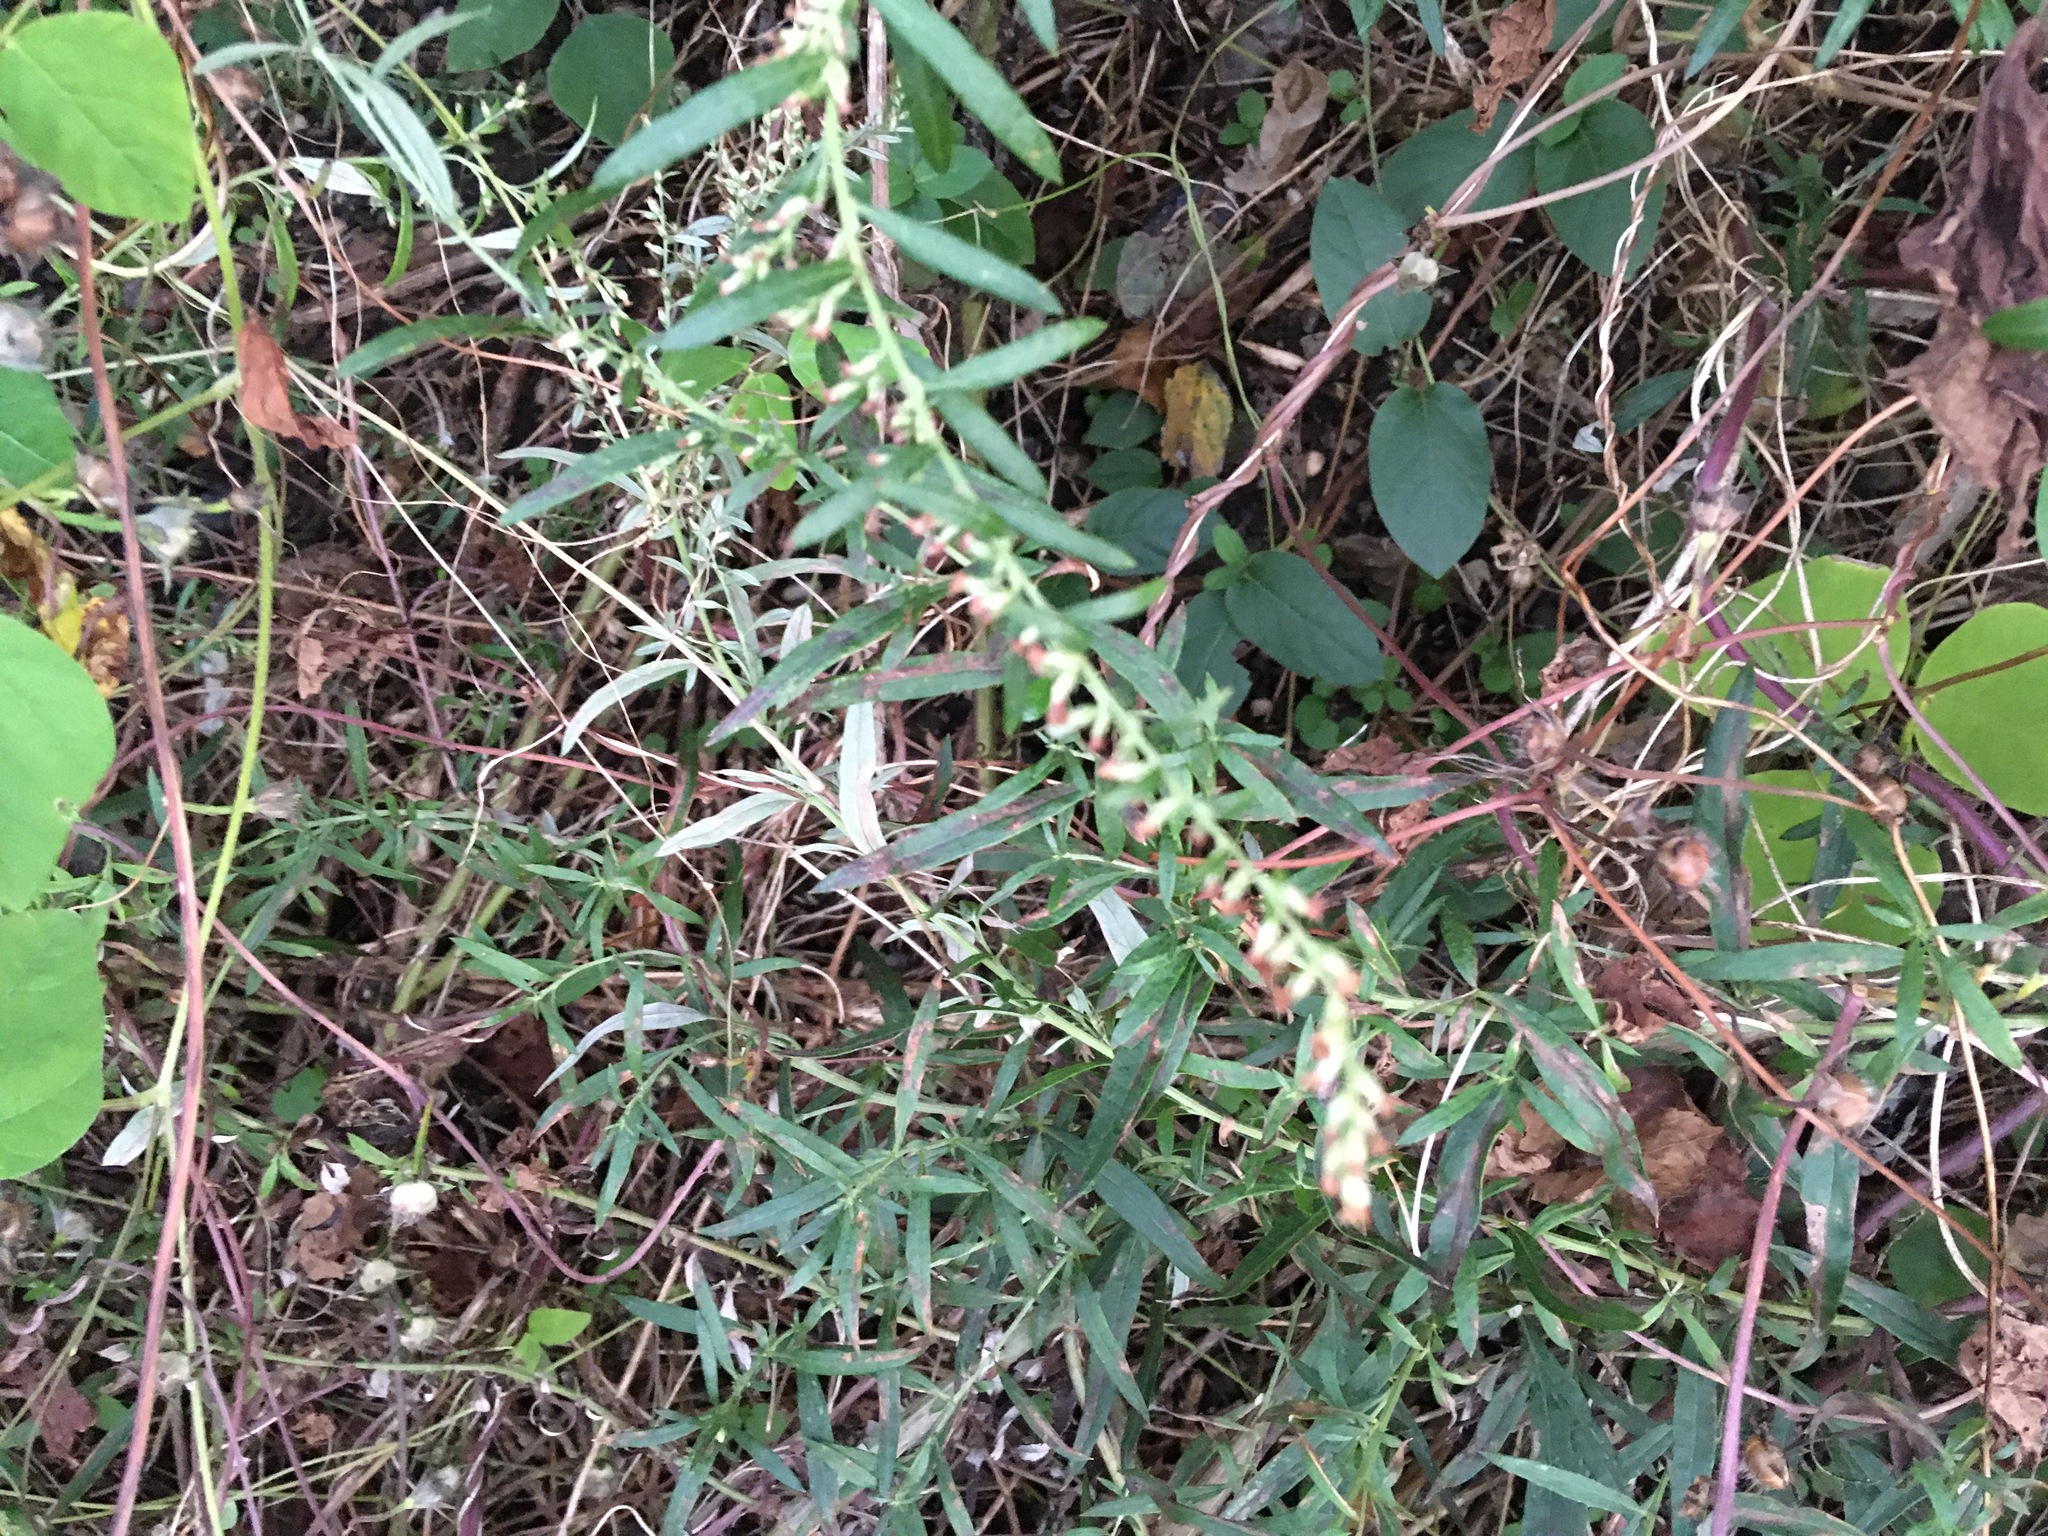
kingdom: Plantae
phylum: Tracheophyta
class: Magnoliopsida
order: Asterales
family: Asteraceae
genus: Artemisia
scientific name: Artemisia vulgaris
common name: Mugwort
